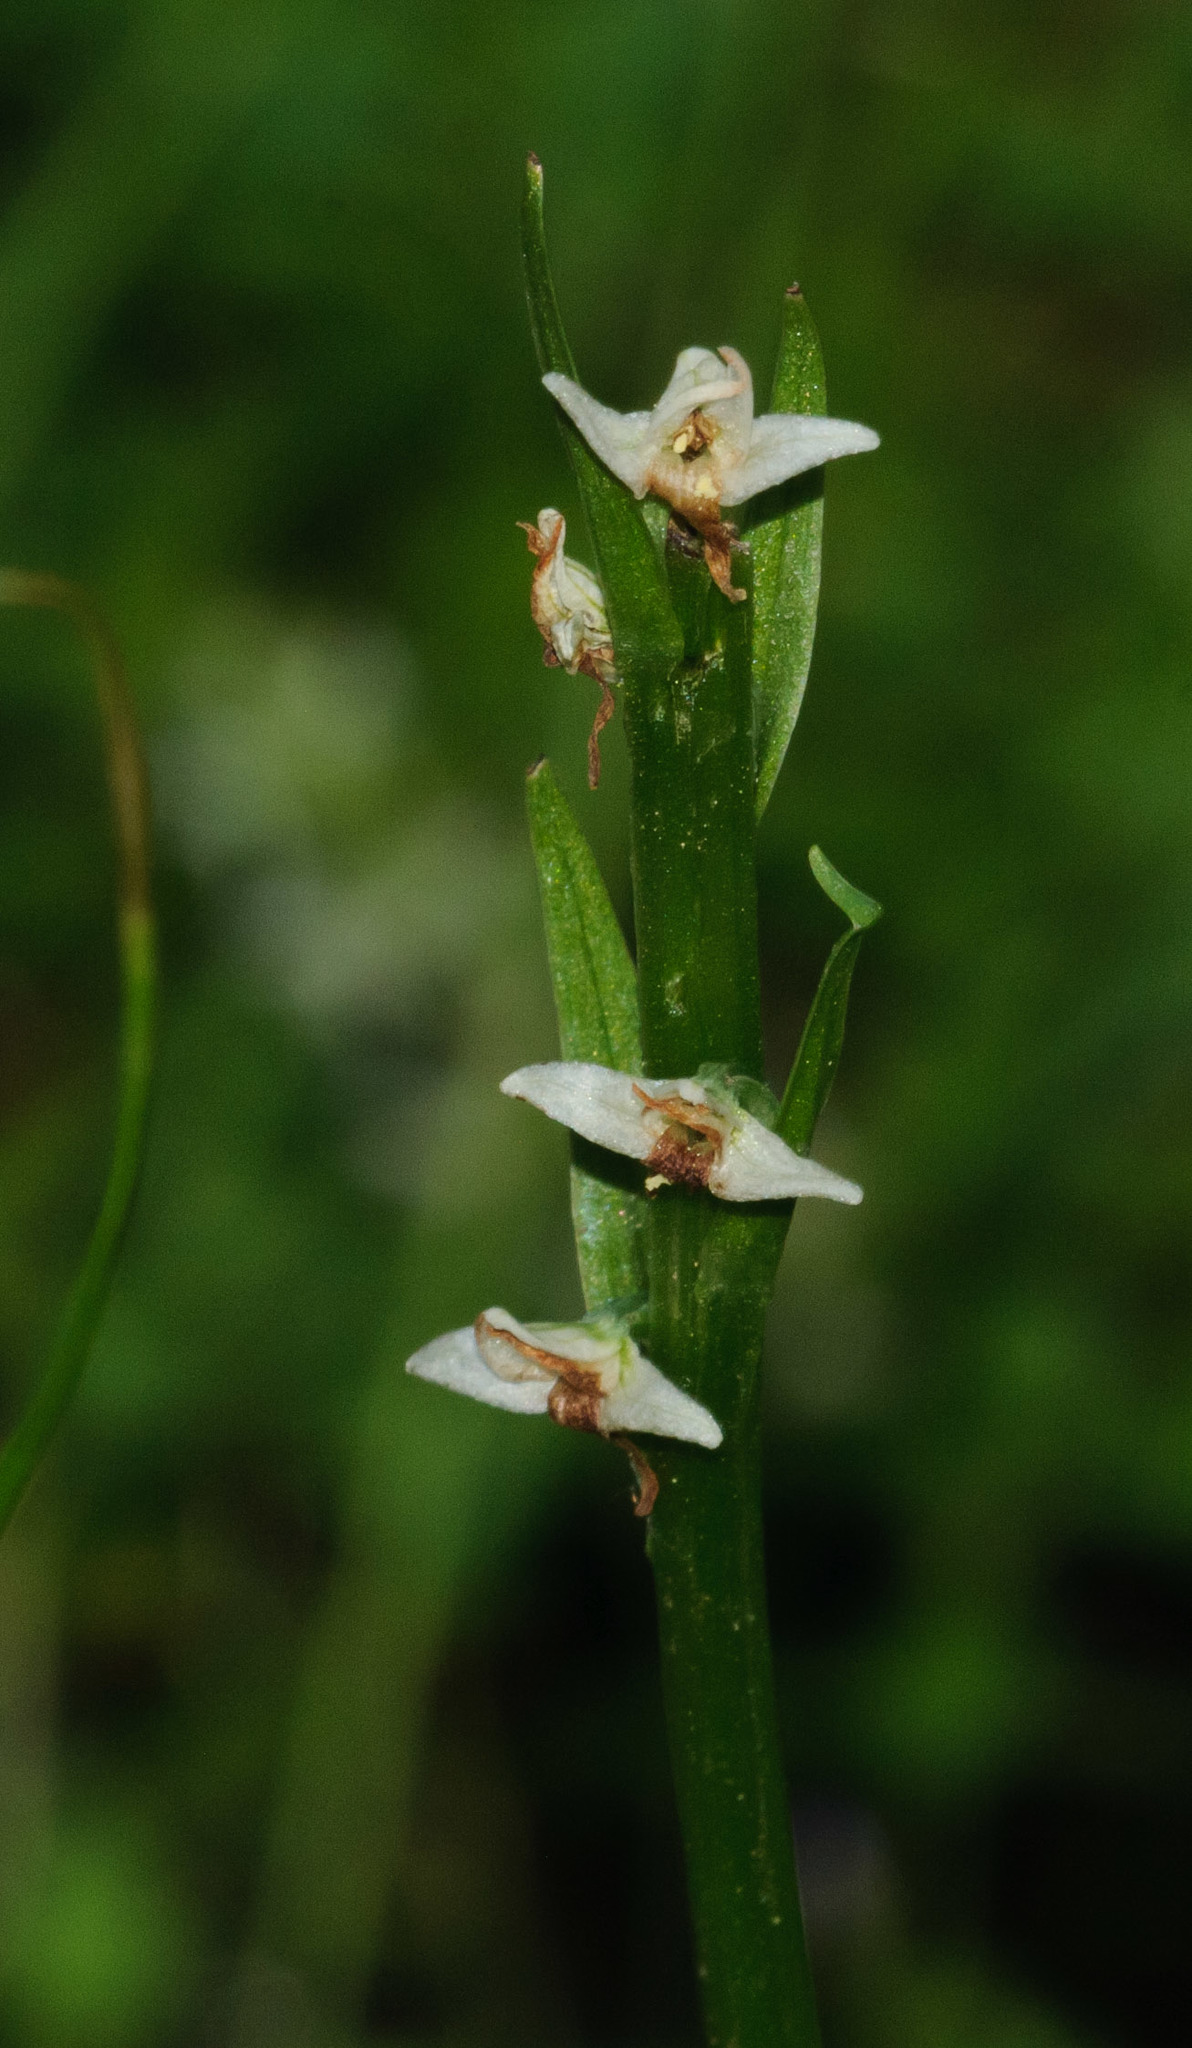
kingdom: Plantae
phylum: Tracheophyta
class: Liliopsida
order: Asparagales
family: Orchidaceae
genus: Platanthera
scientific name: Platanthera dilatata
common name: Bog candles
